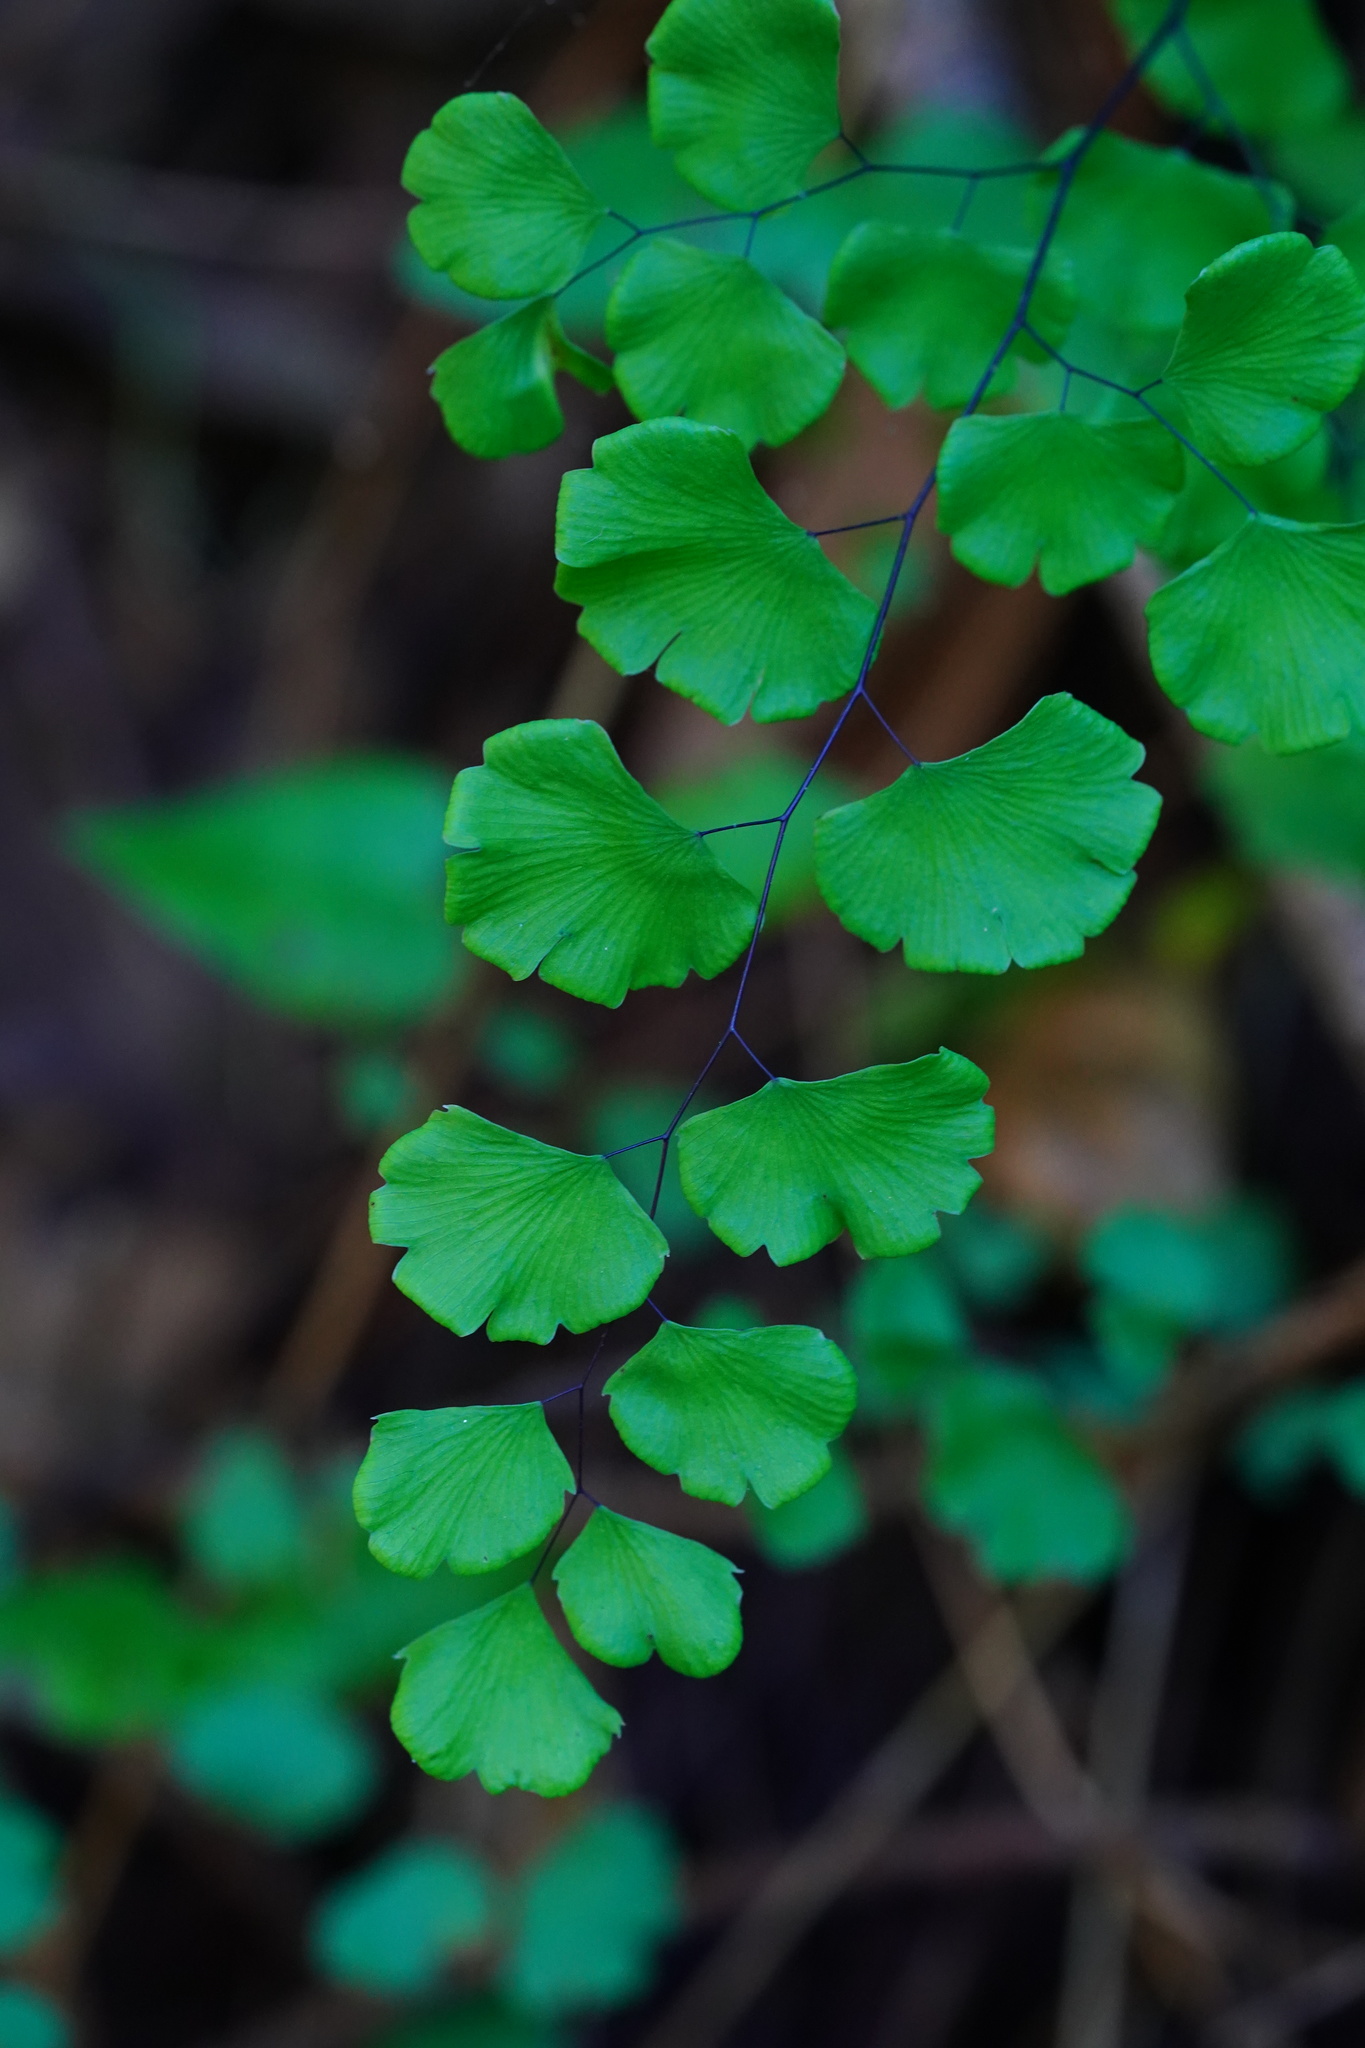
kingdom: Plantae
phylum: Tracheophyta
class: Polypodiopsida
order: Polypodiales
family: Pteridaceae
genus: Adiantum
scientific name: Adiantum jordanii
